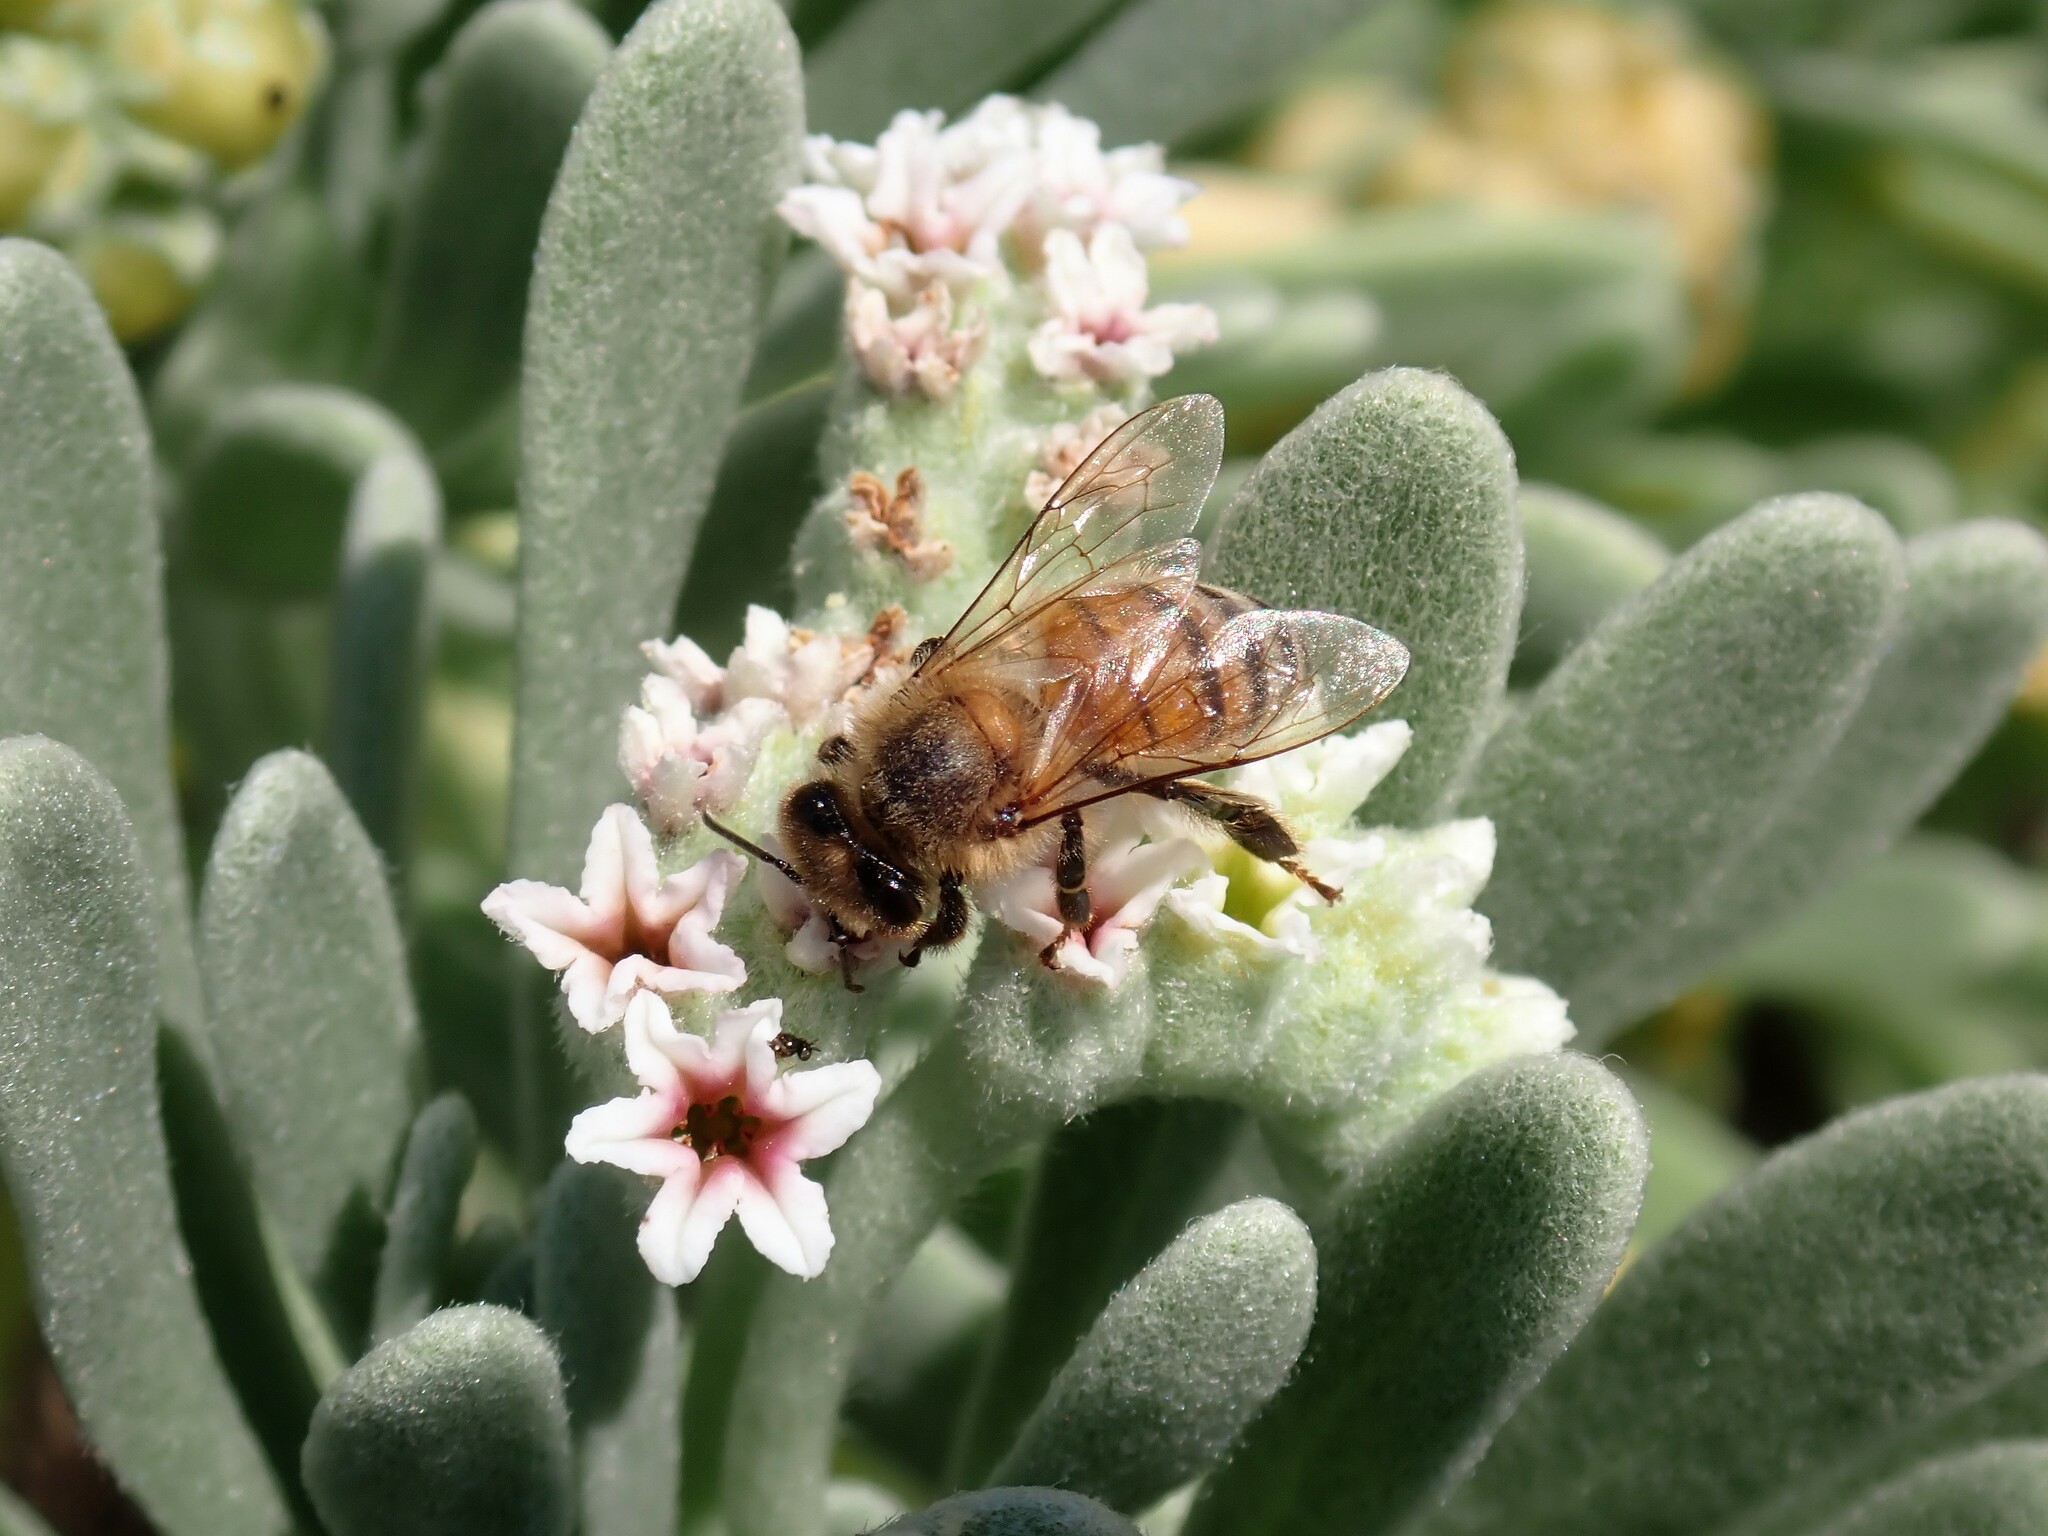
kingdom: Animalia
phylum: Arthropoda
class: Insecta
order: Hymenoptera
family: Apidae
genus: Apis
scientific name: Apis mellifera
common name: Honey bee
